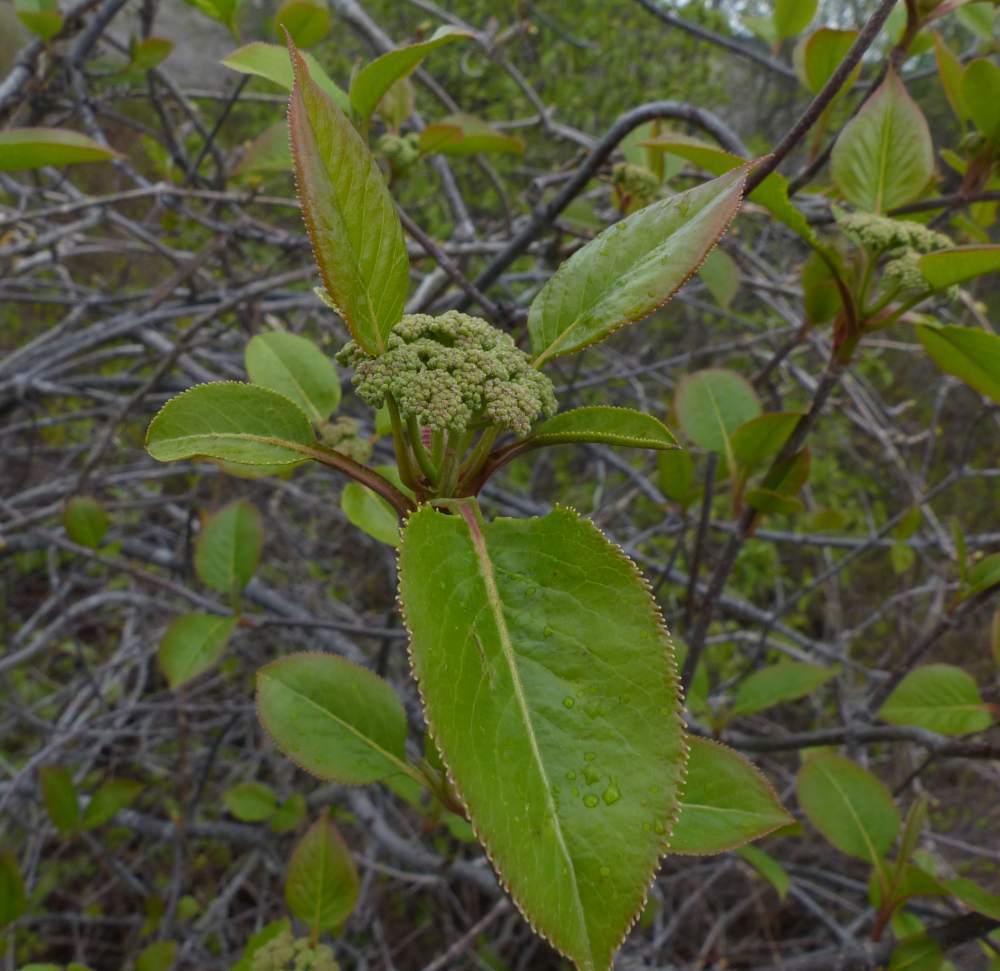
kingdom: Plantae
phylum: Tracheophyta
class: Magnoliopsida
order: Dipsacales
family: Viburnaceae
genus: Viburnum
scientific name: Viburnum lentago
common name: Black haw
